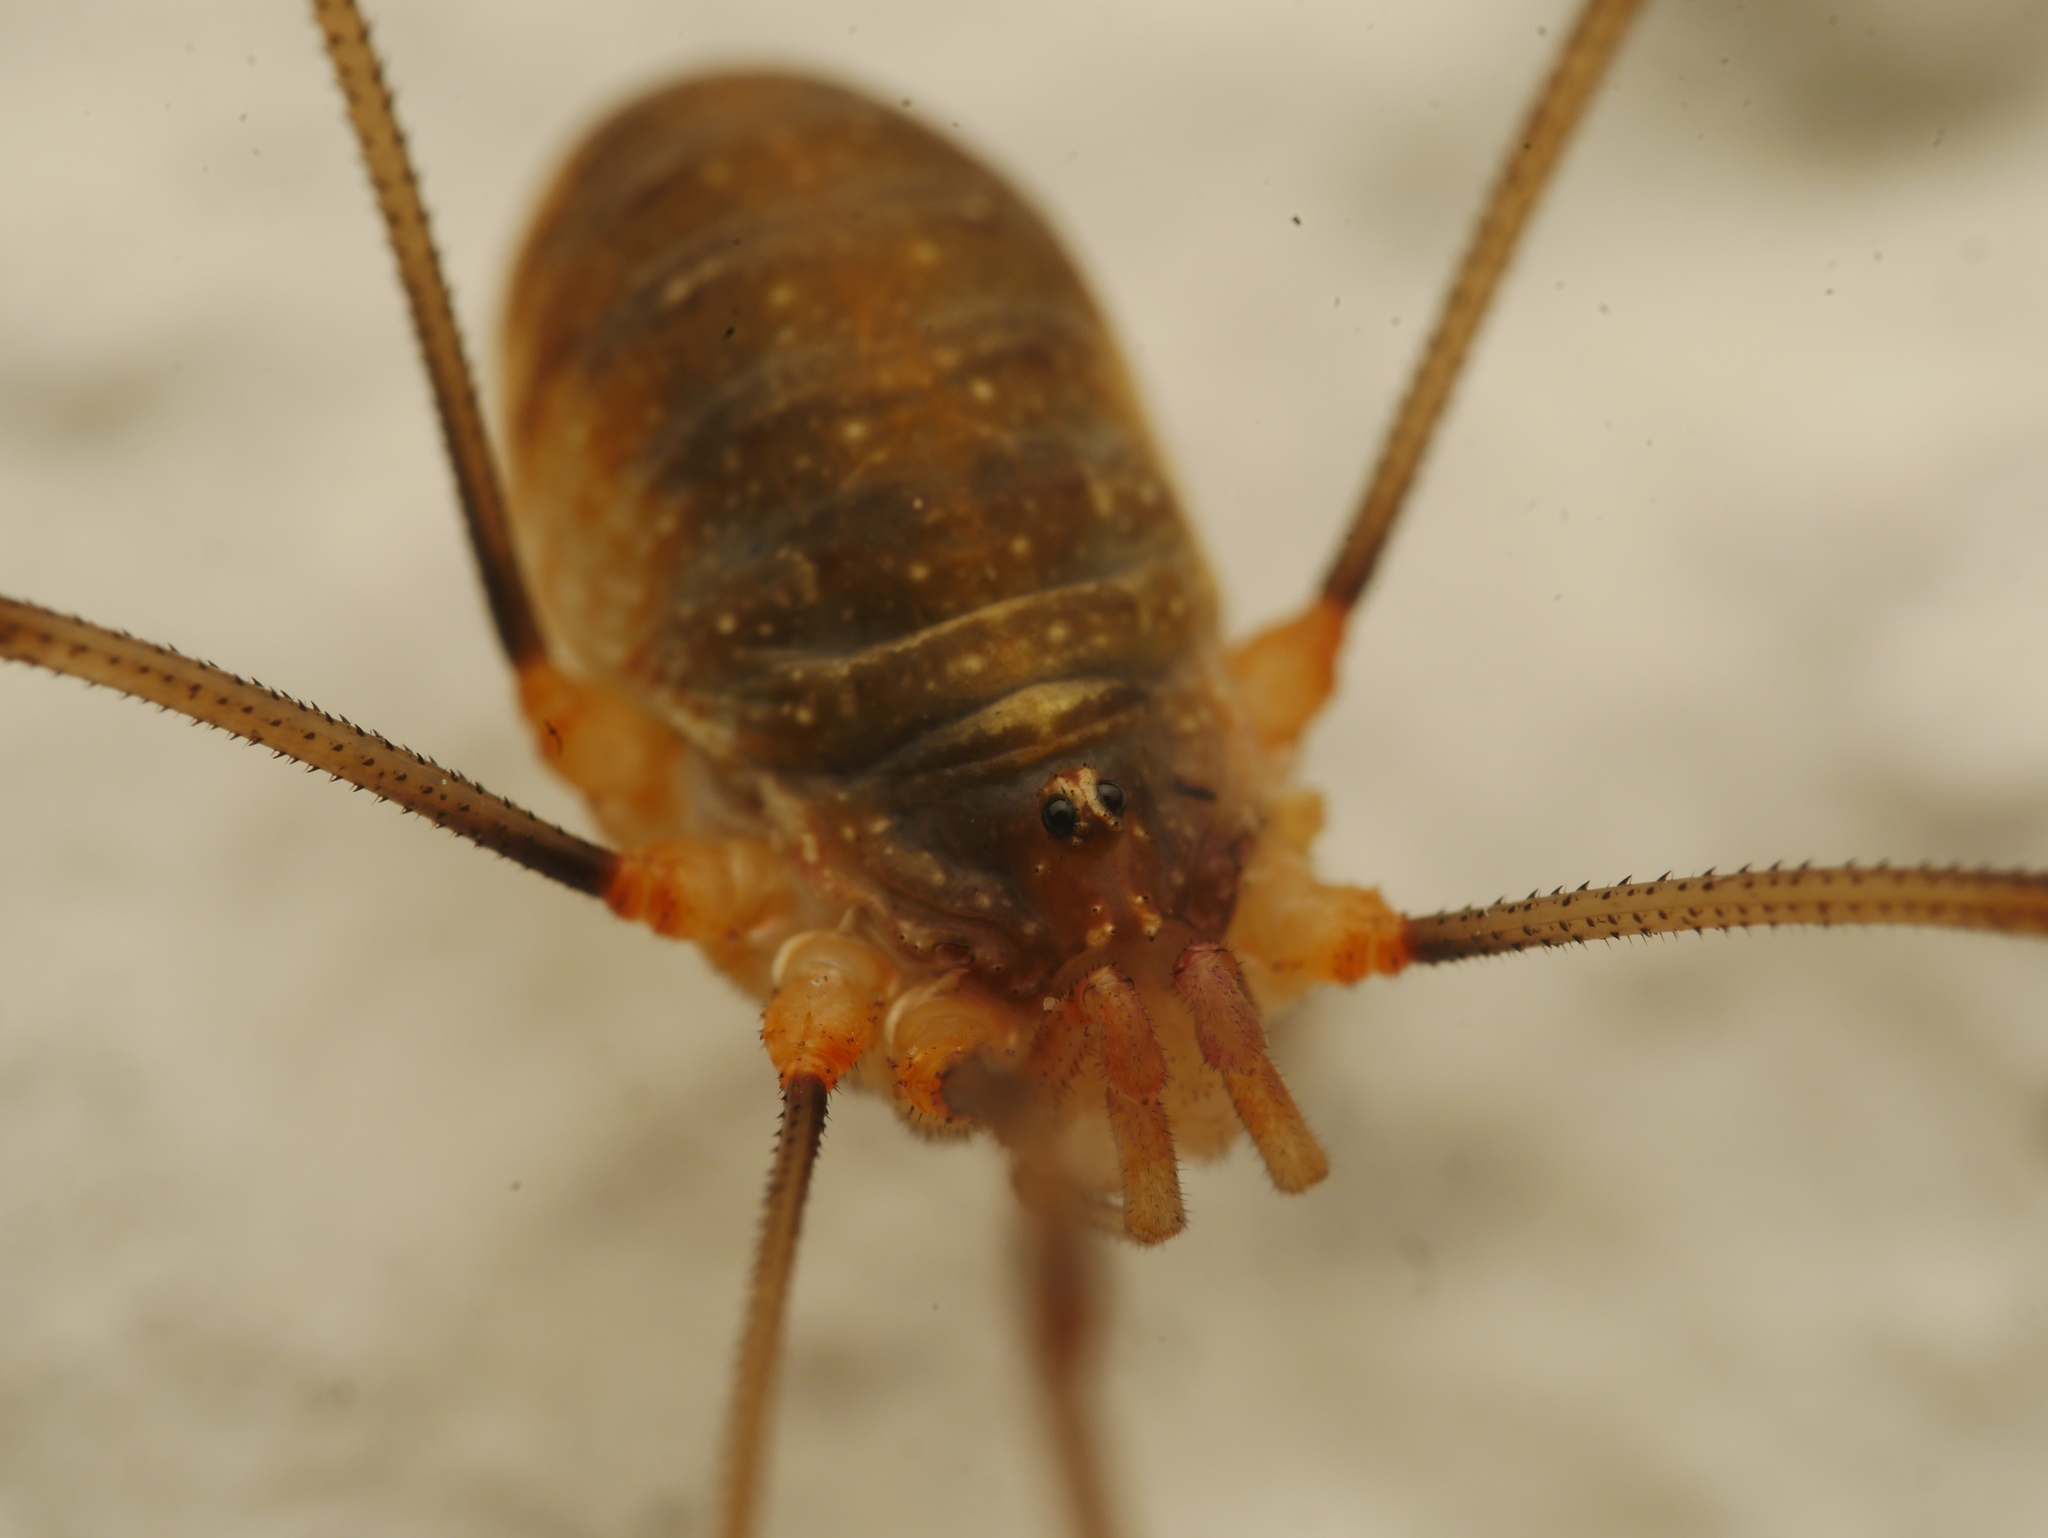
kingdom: Animalia
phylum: Arthropoda
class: Arachnida
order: Opiliones
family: Phalangiidae
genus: Opilio
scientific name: Opilio canestrinii
